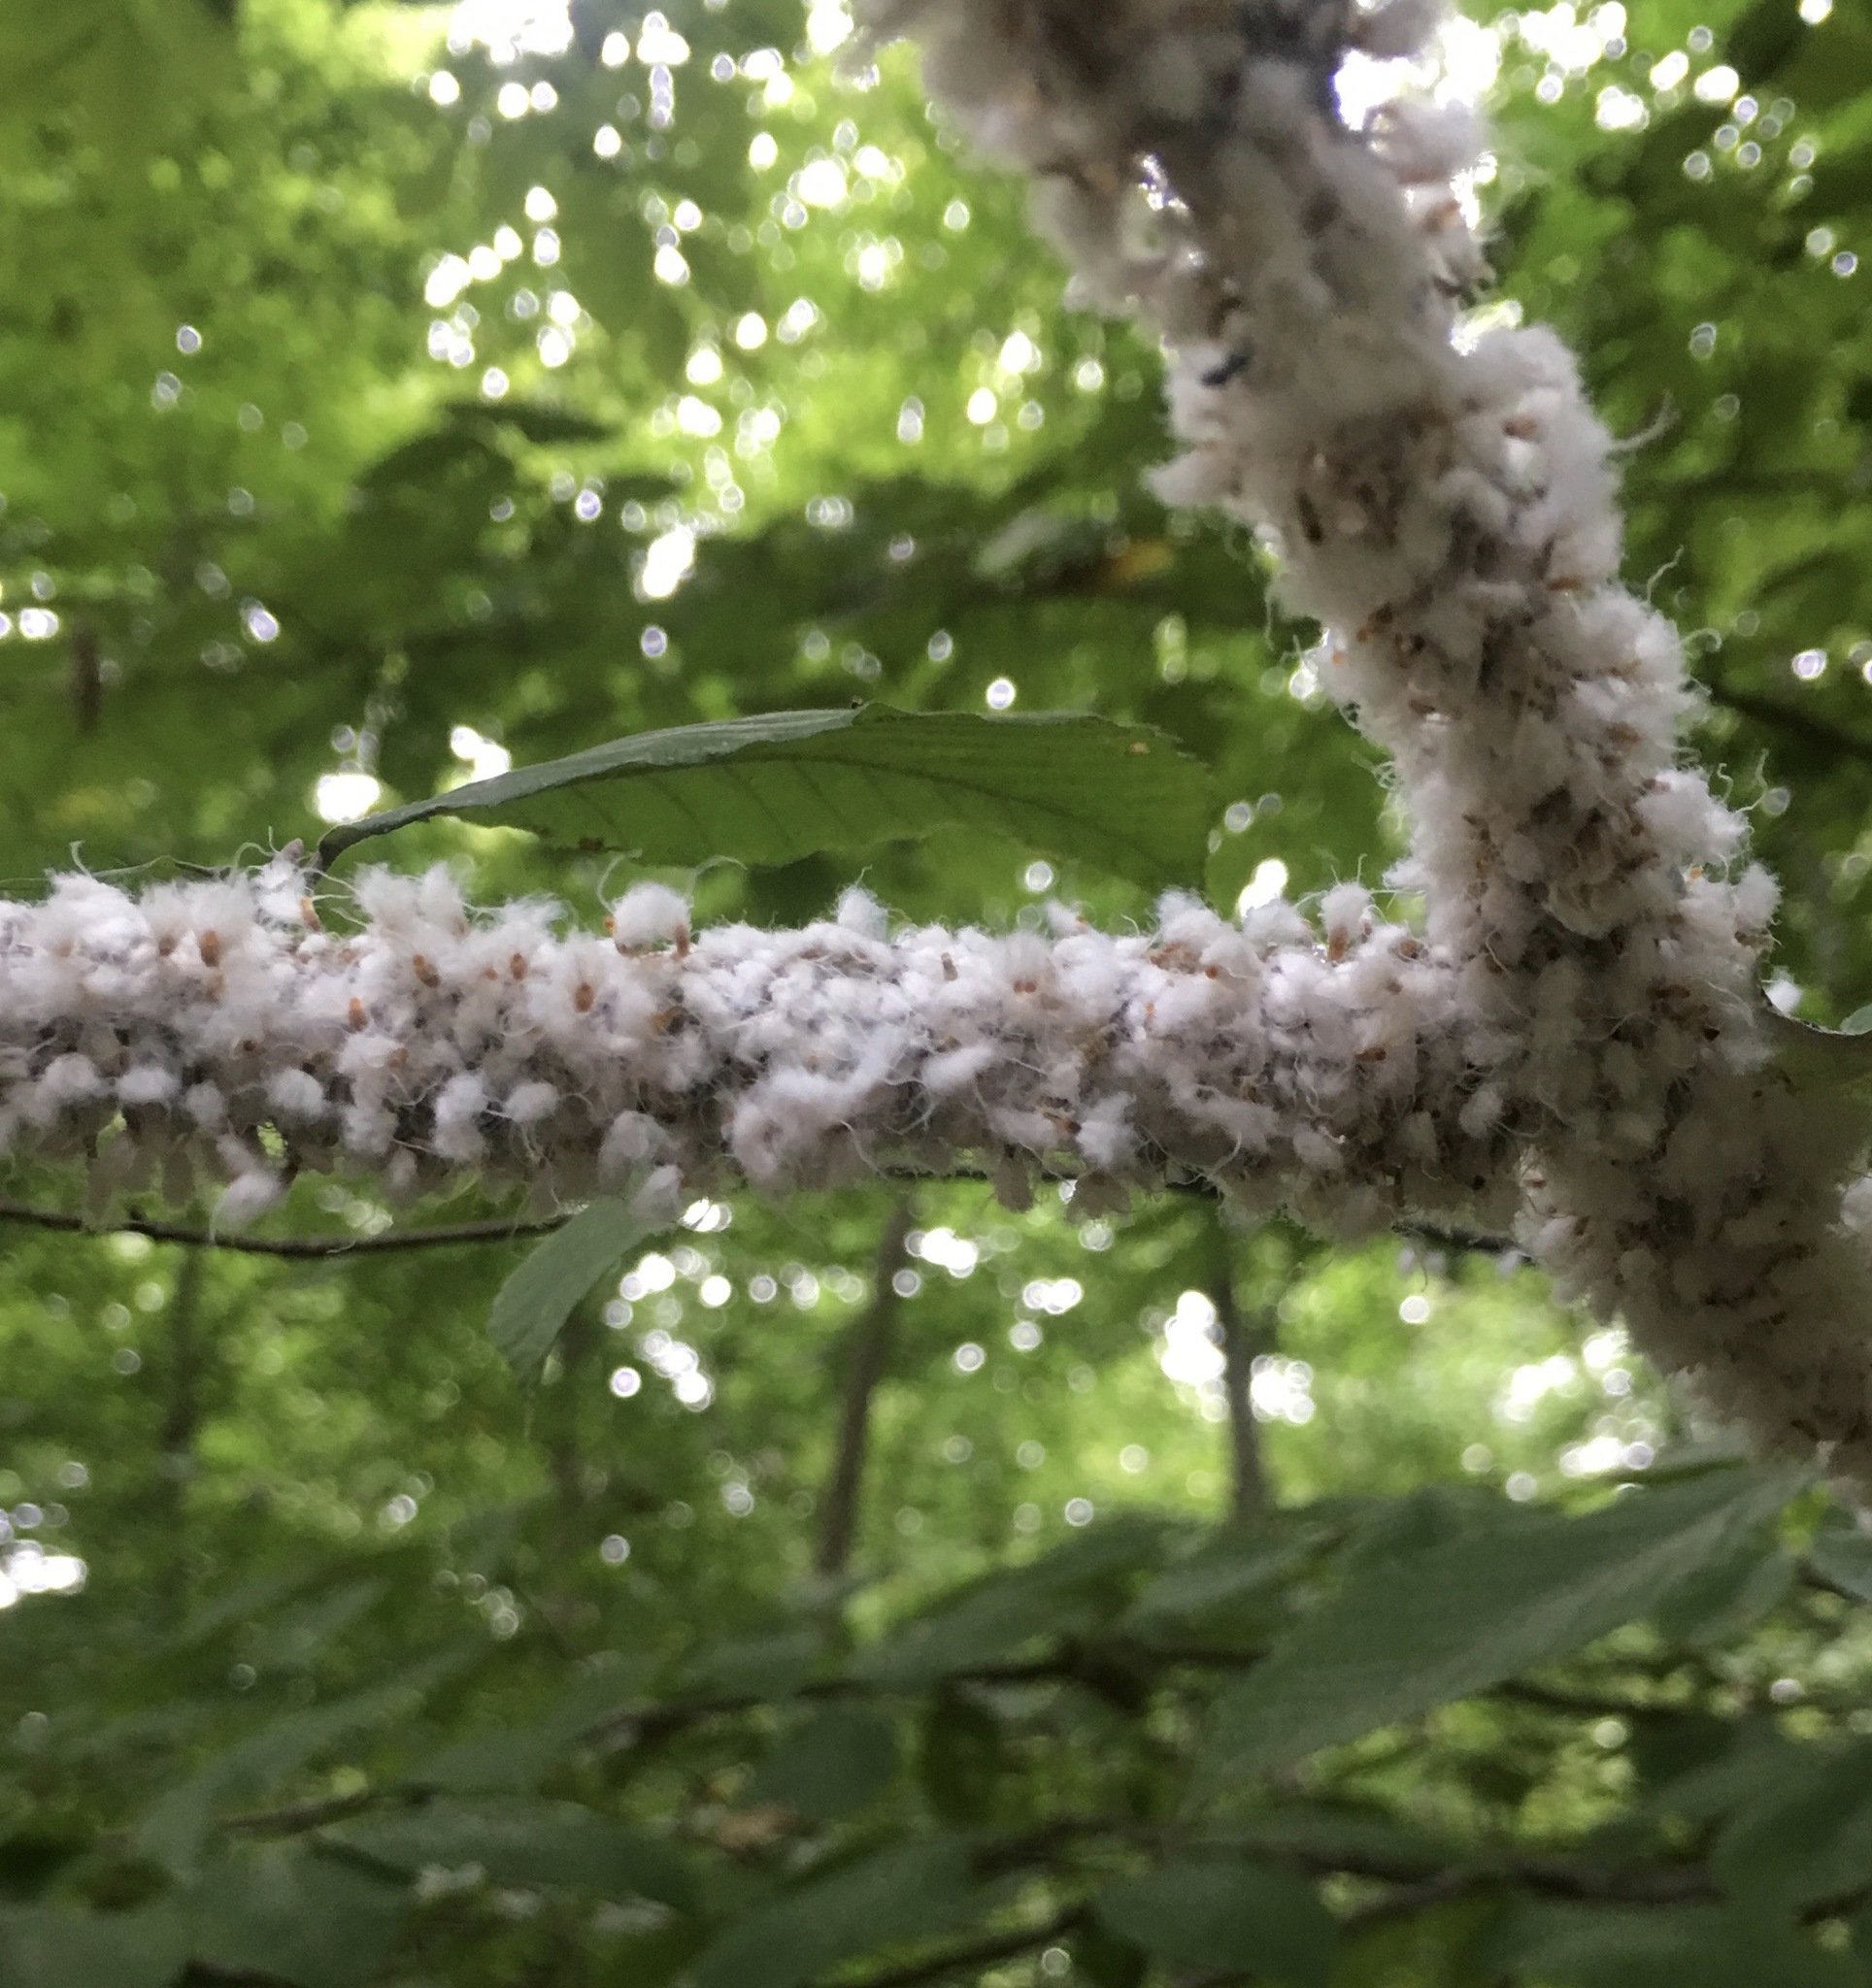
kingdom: Animalia
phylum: Arthropoda
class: Insecta
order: Hemiptera
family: Aphididae
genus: Grylloprociphilus
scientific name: Grylloprociphilus imbricator
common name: Beech blight aphid
